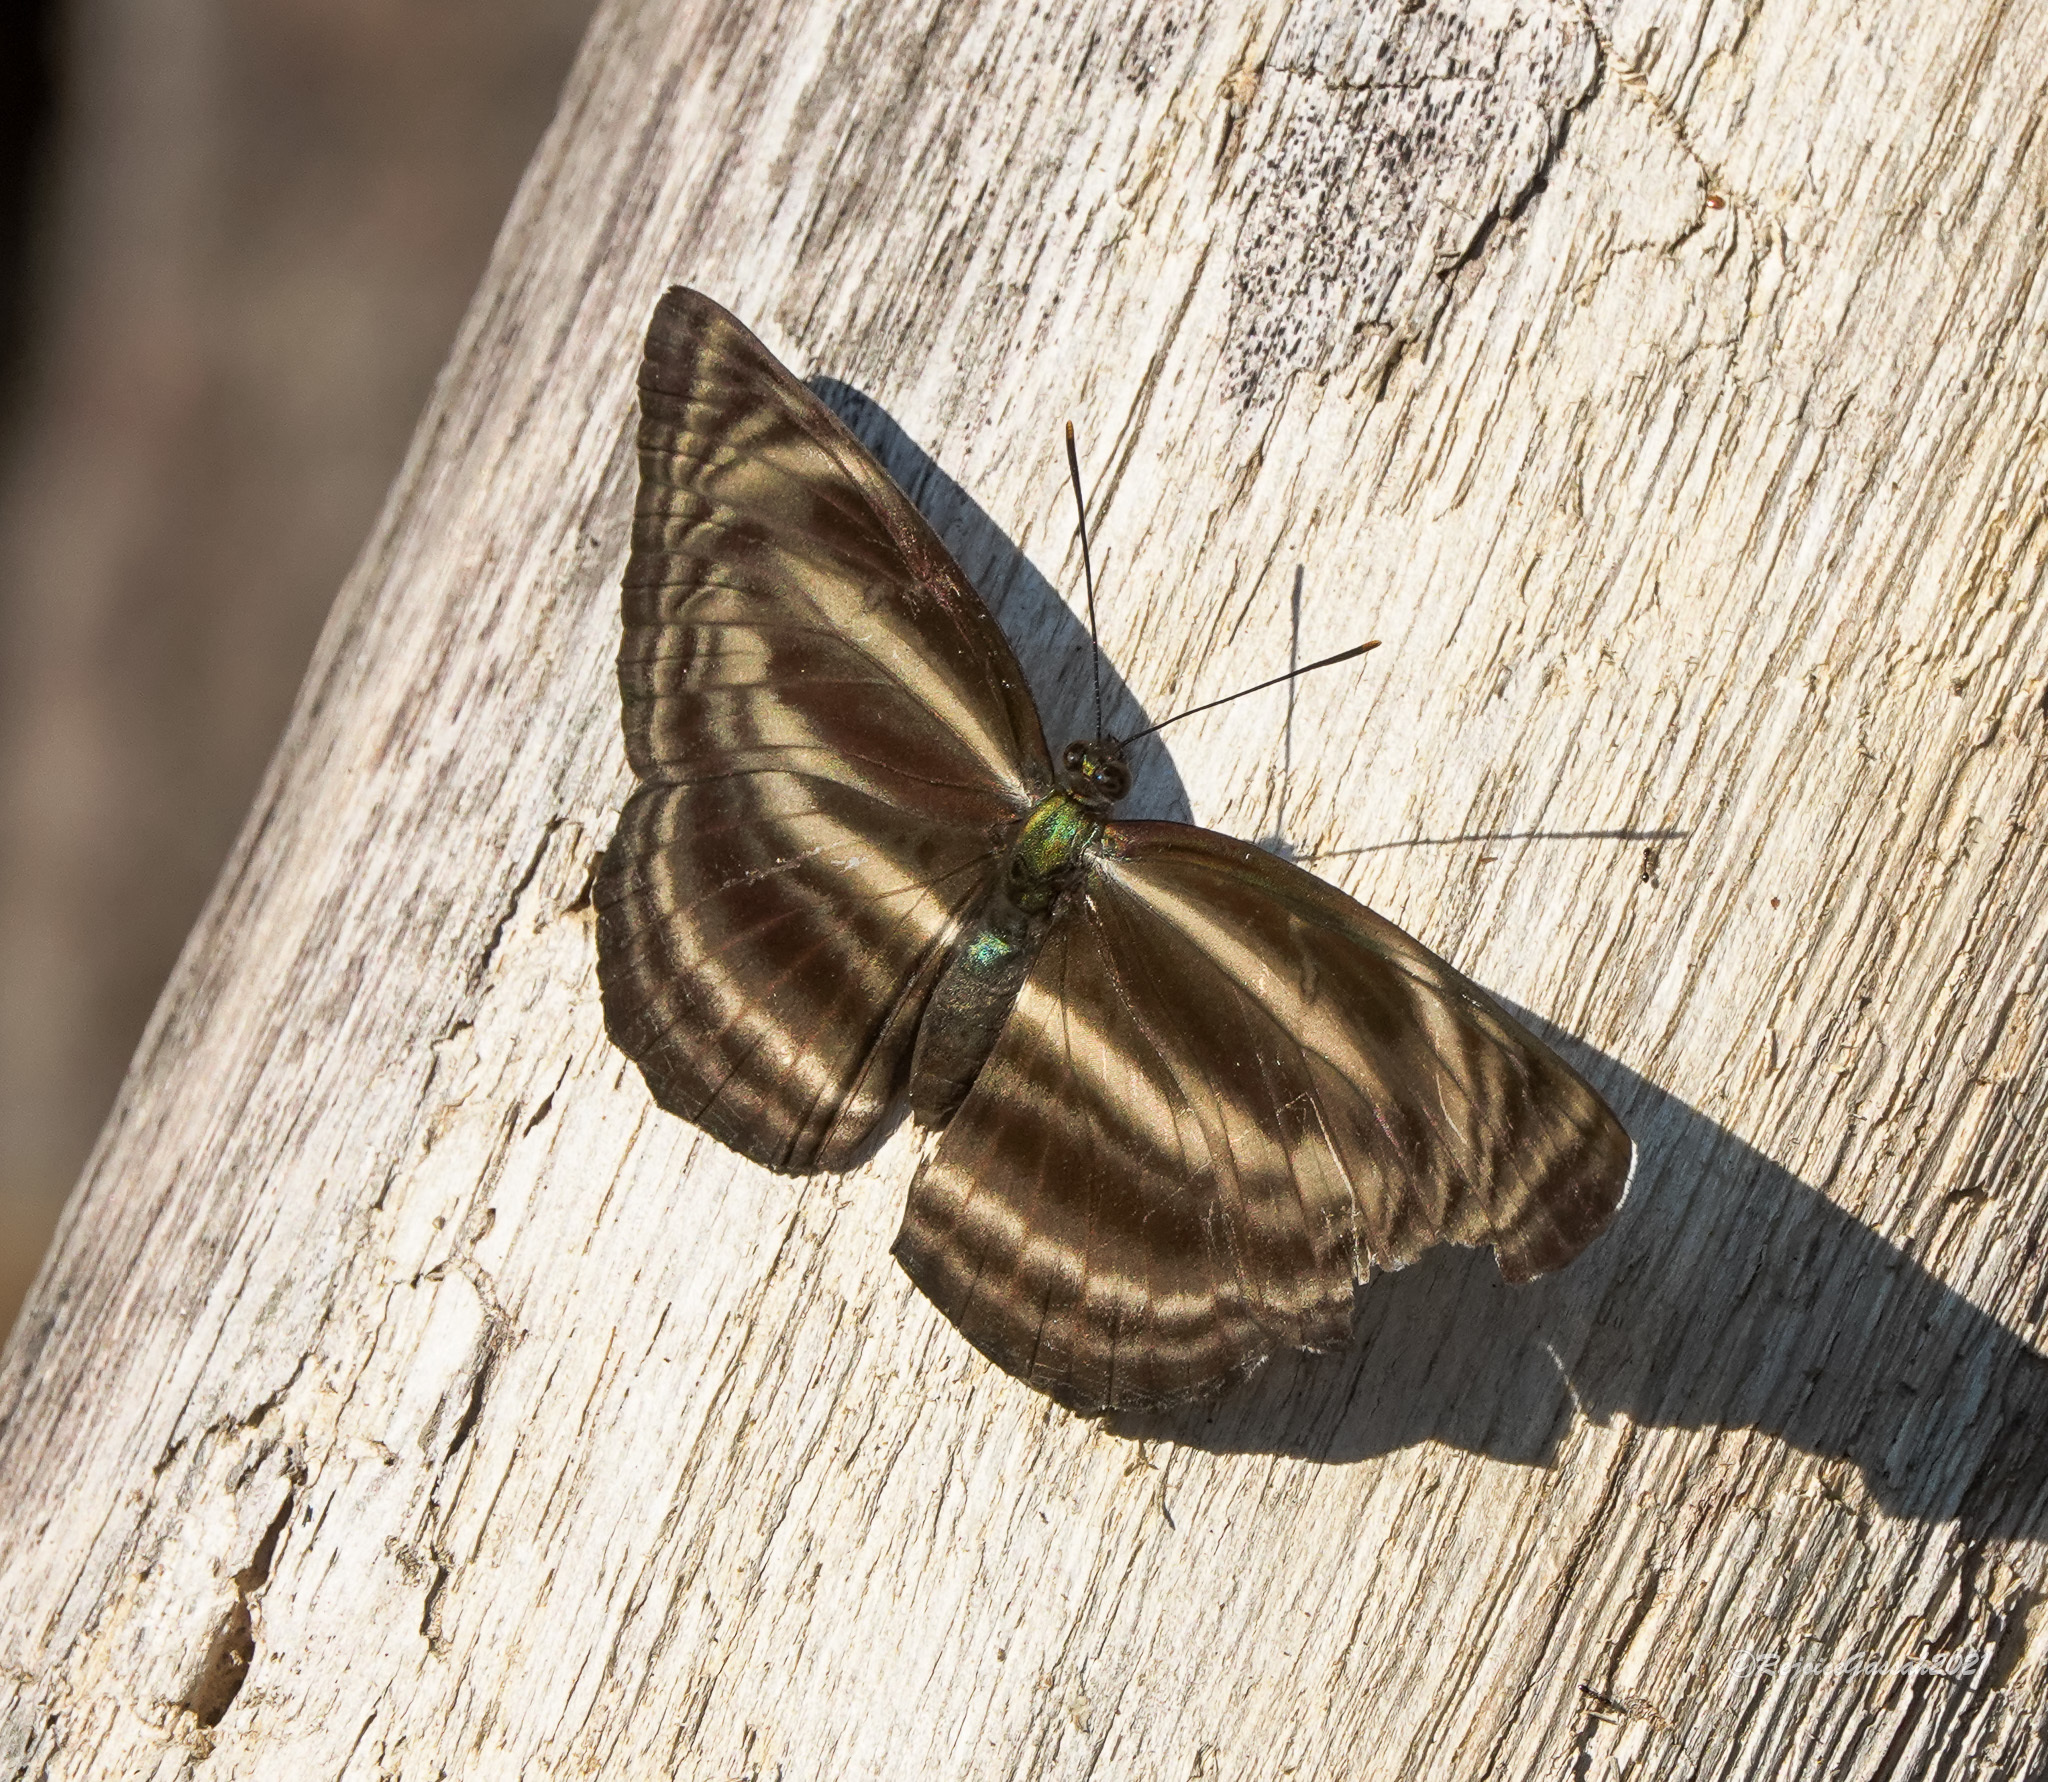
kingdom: Animalia
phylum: Arthropoda
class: Insecta
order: Lepidoptera
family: Nymphalidae
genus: Neptis
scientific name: Neptis
